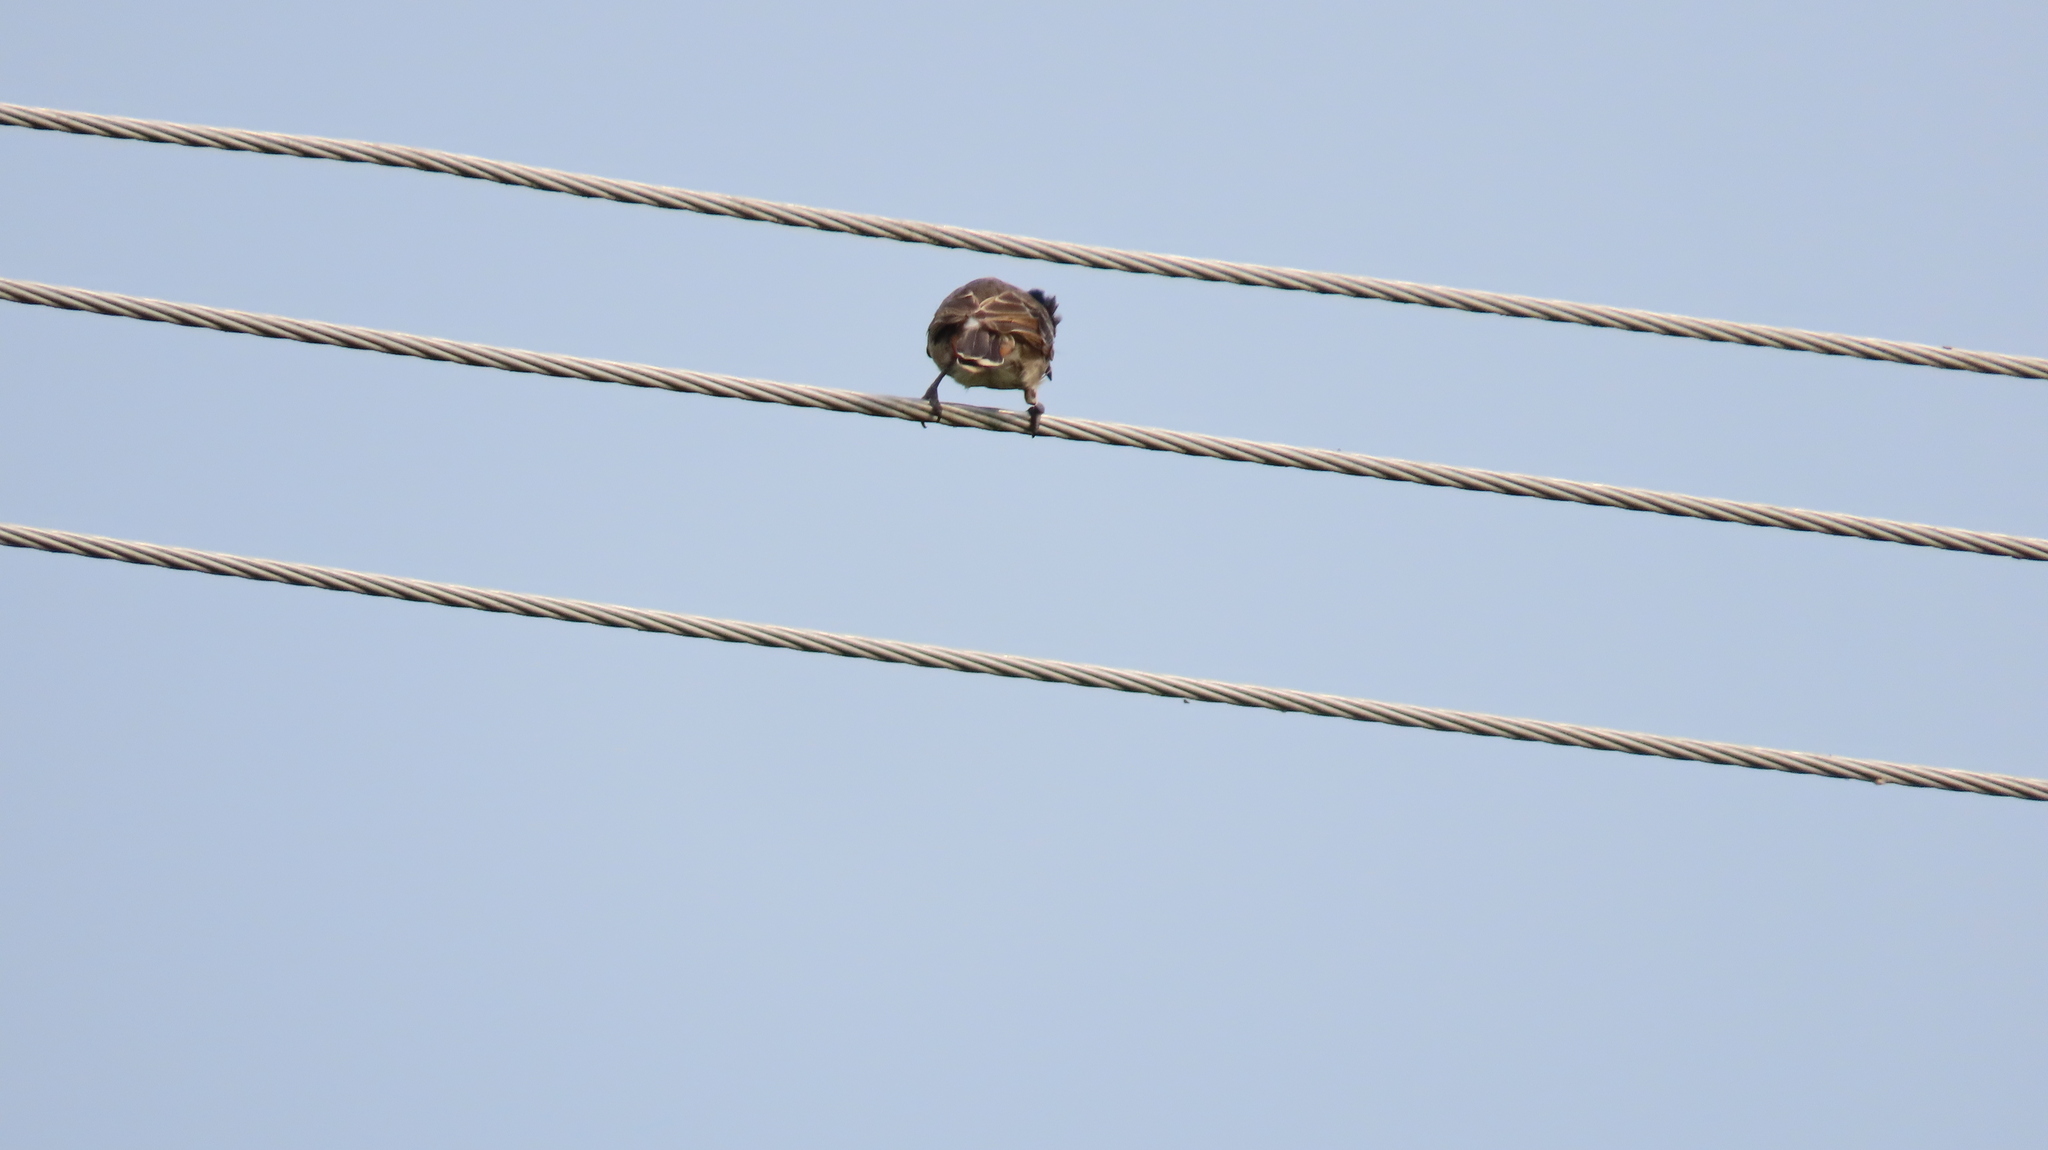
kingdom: Animalia
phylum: Chordata
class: Aves
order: Passeriformes
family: Pycnonotidae
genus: Pycnonotus
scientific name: Pycnonotus cafer
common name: Red-vented bulbul
